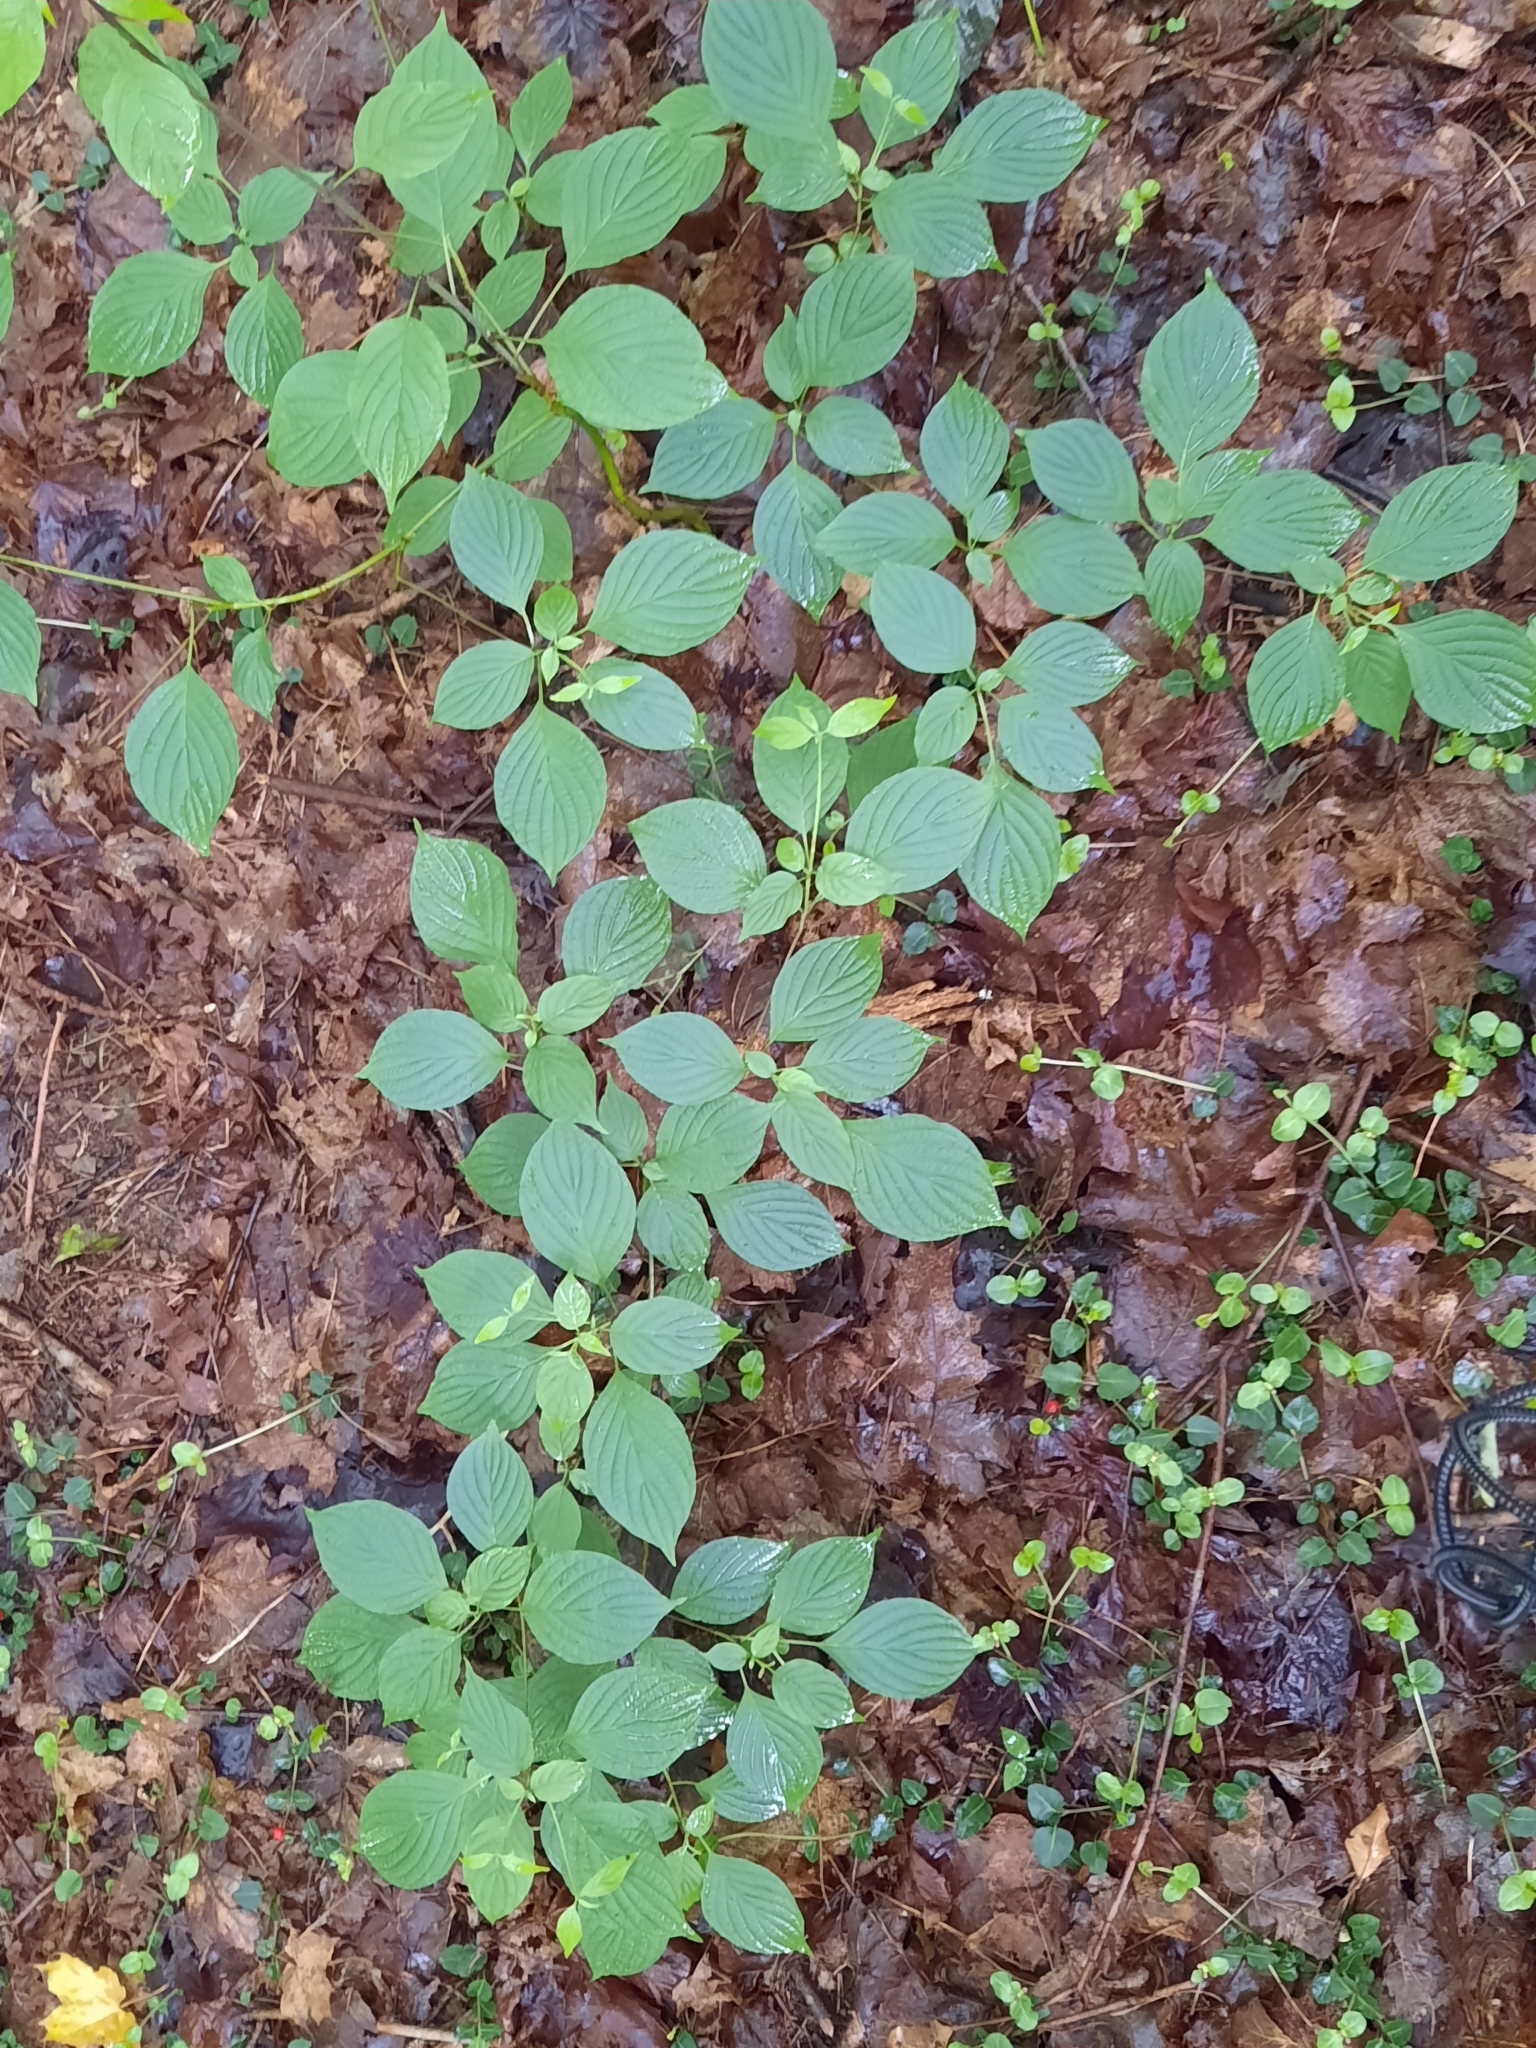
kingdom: Plantae
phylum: Tracheophyta
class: Magnoliopsida
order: Cornales
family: Cornaceae
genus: Cornus
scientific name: Cornus alternifolia
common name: Pagoda dogwood
